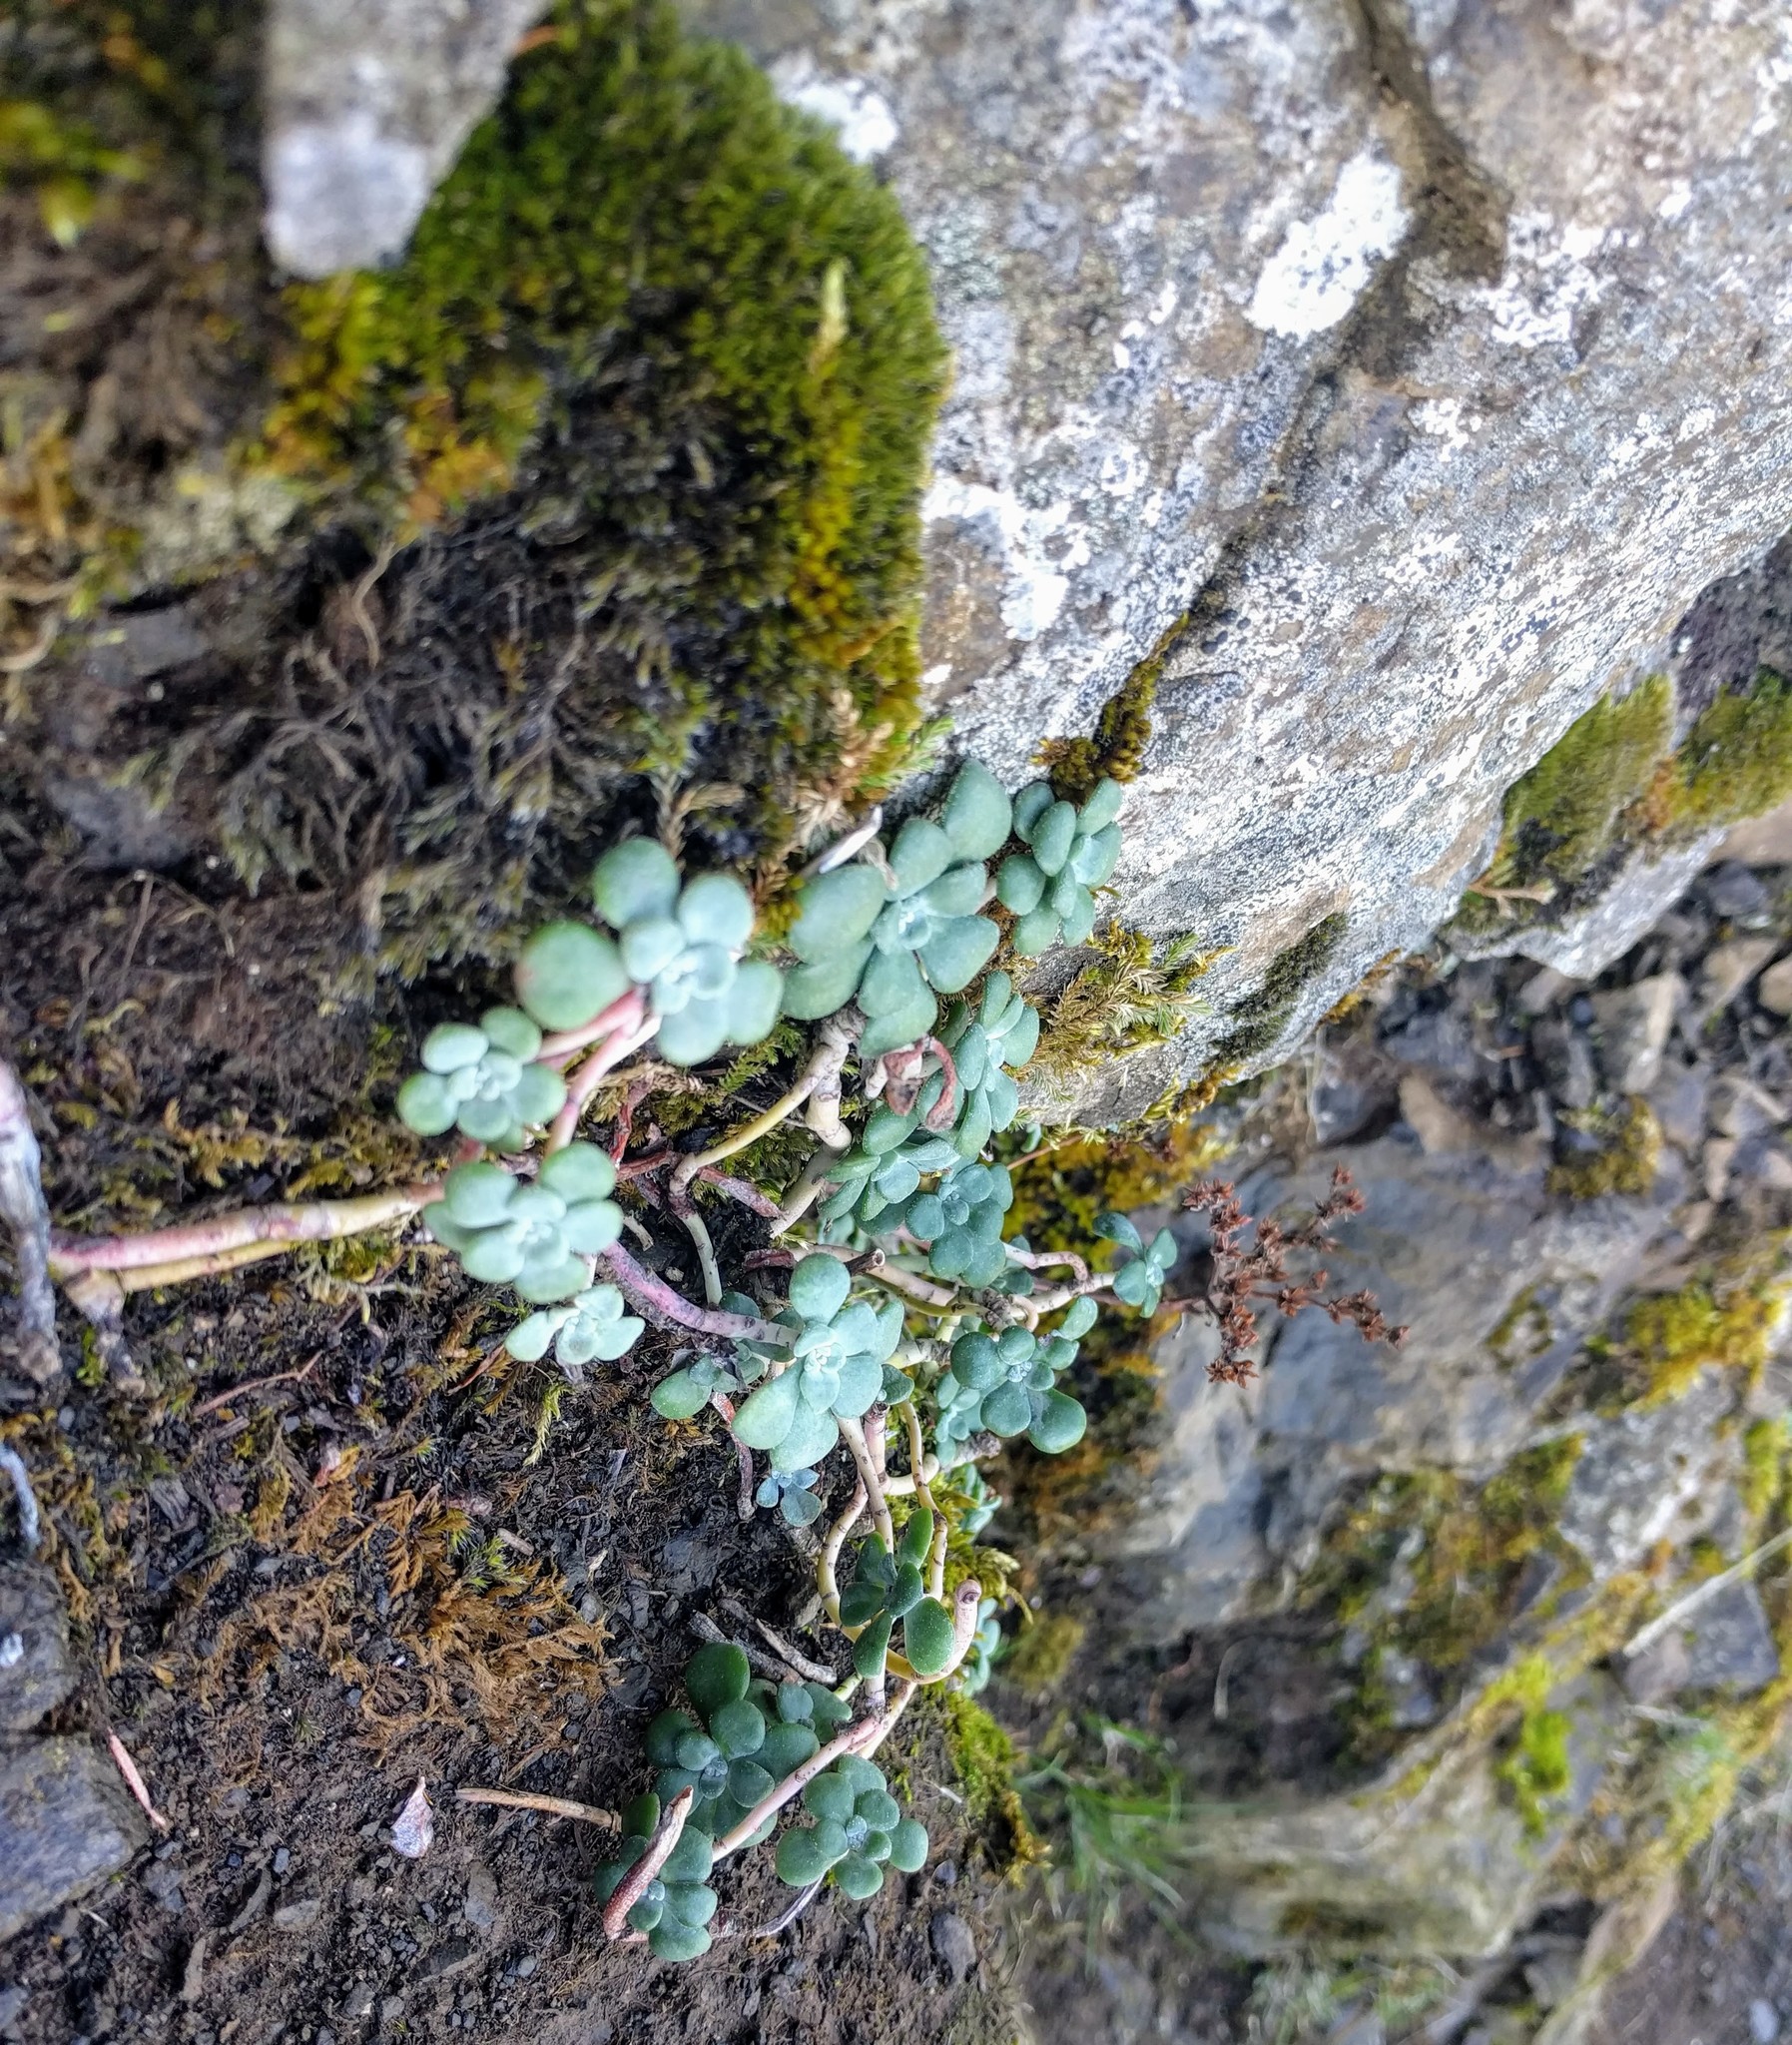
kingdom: Plantae
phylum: Tracheophyta
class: Magnoliopsida
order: Saxifragales
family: Crassulaceae
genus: Sedum
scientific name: Sedum spathulifolium
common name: Colorado stonecrop
